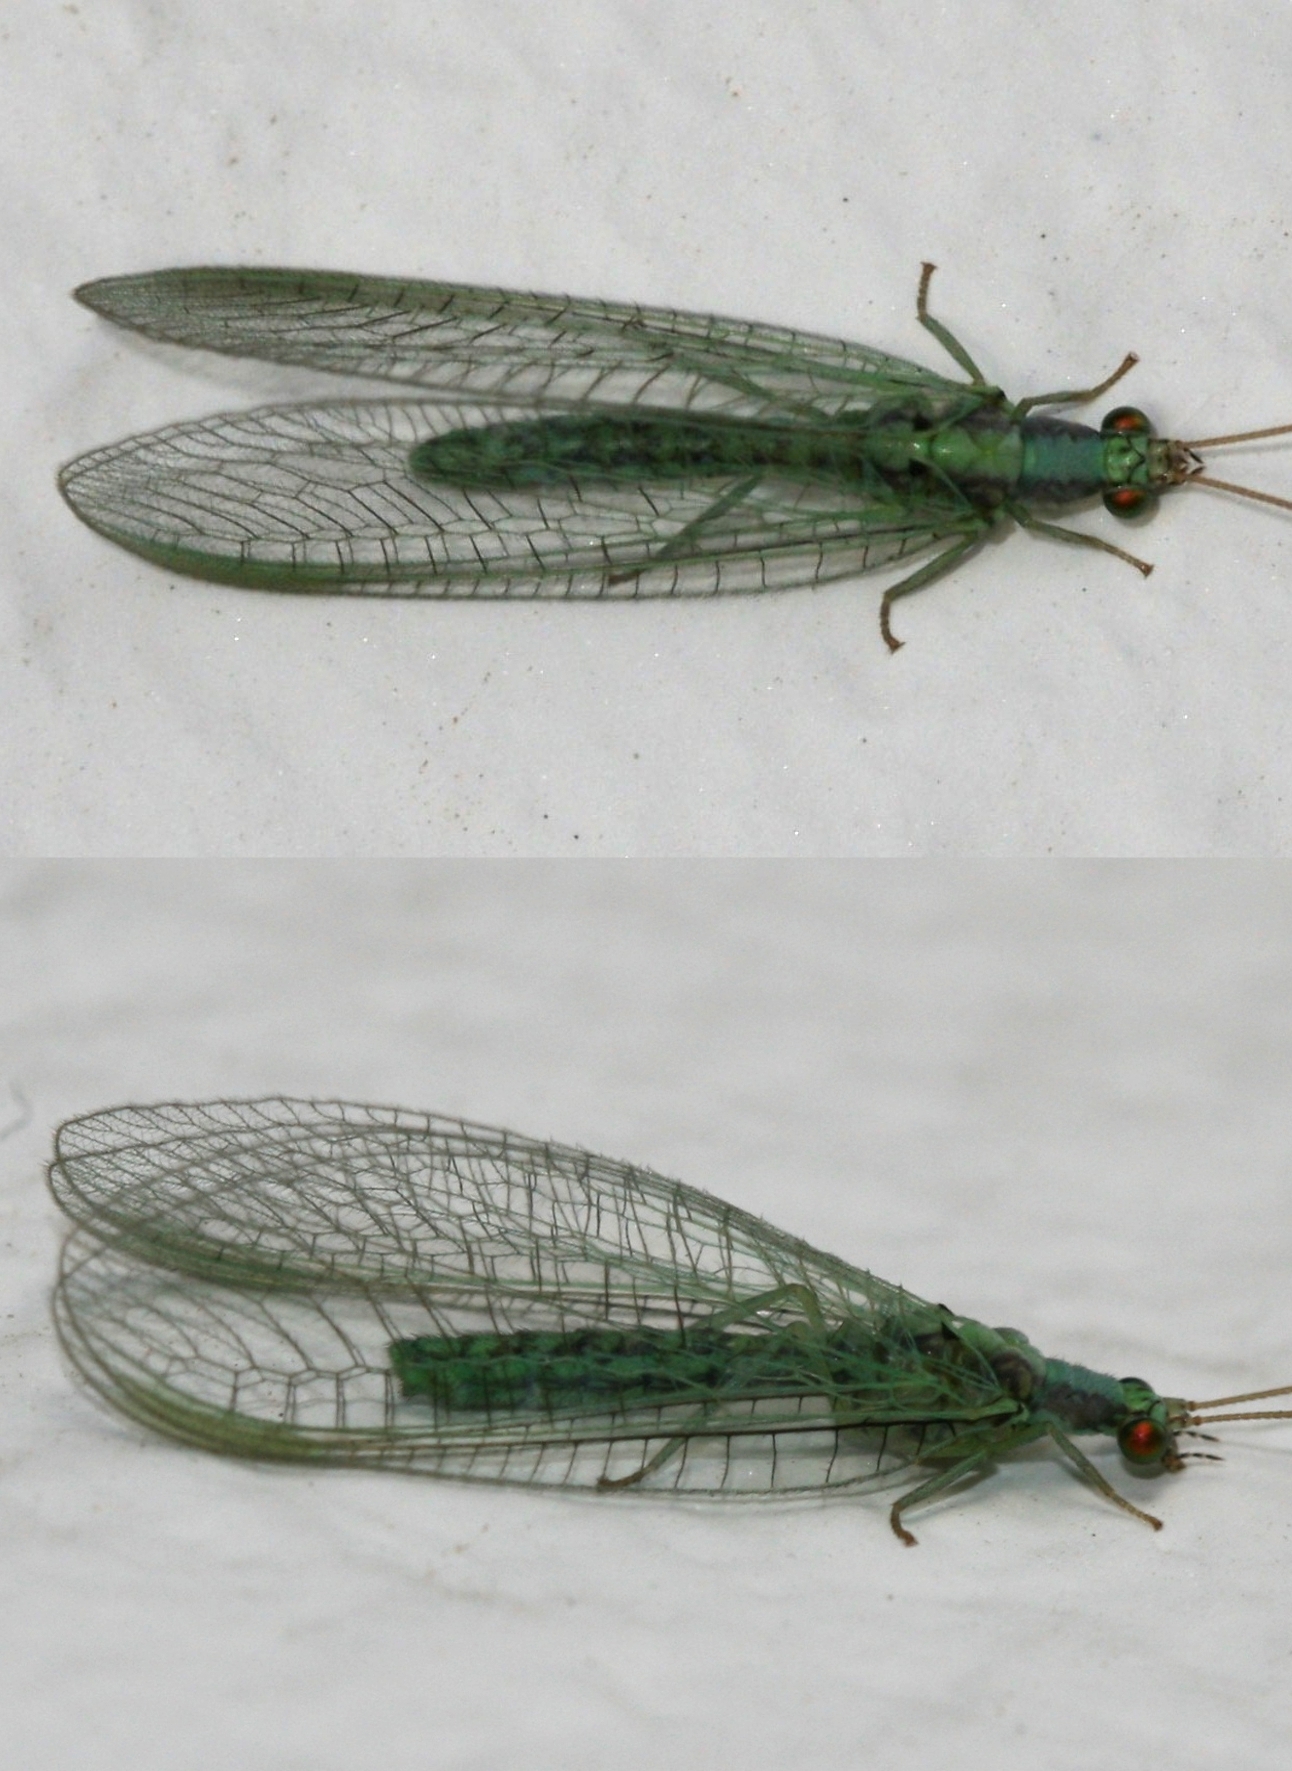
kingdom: Animalia
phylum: Arthropoda
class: Insecta
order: Neuroptera
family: Chrysopidae
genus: Pseudomallada
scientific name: Pseudomallada subcostalis
